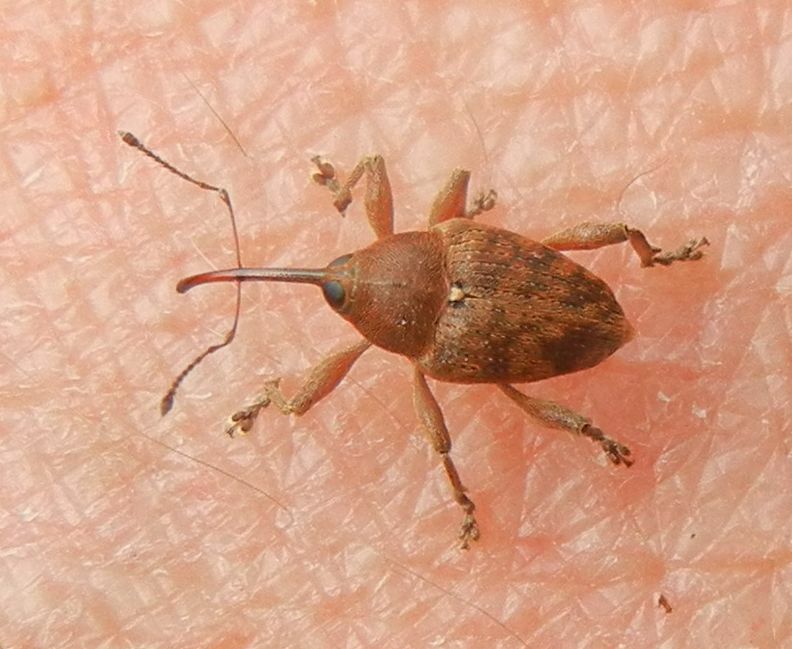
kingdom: Animalia
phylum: Arthropoda
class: Insecta
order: Coleoptera
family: Curculionidae
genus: Curculio
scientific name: Curculio glandium
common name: Acorn weevil
